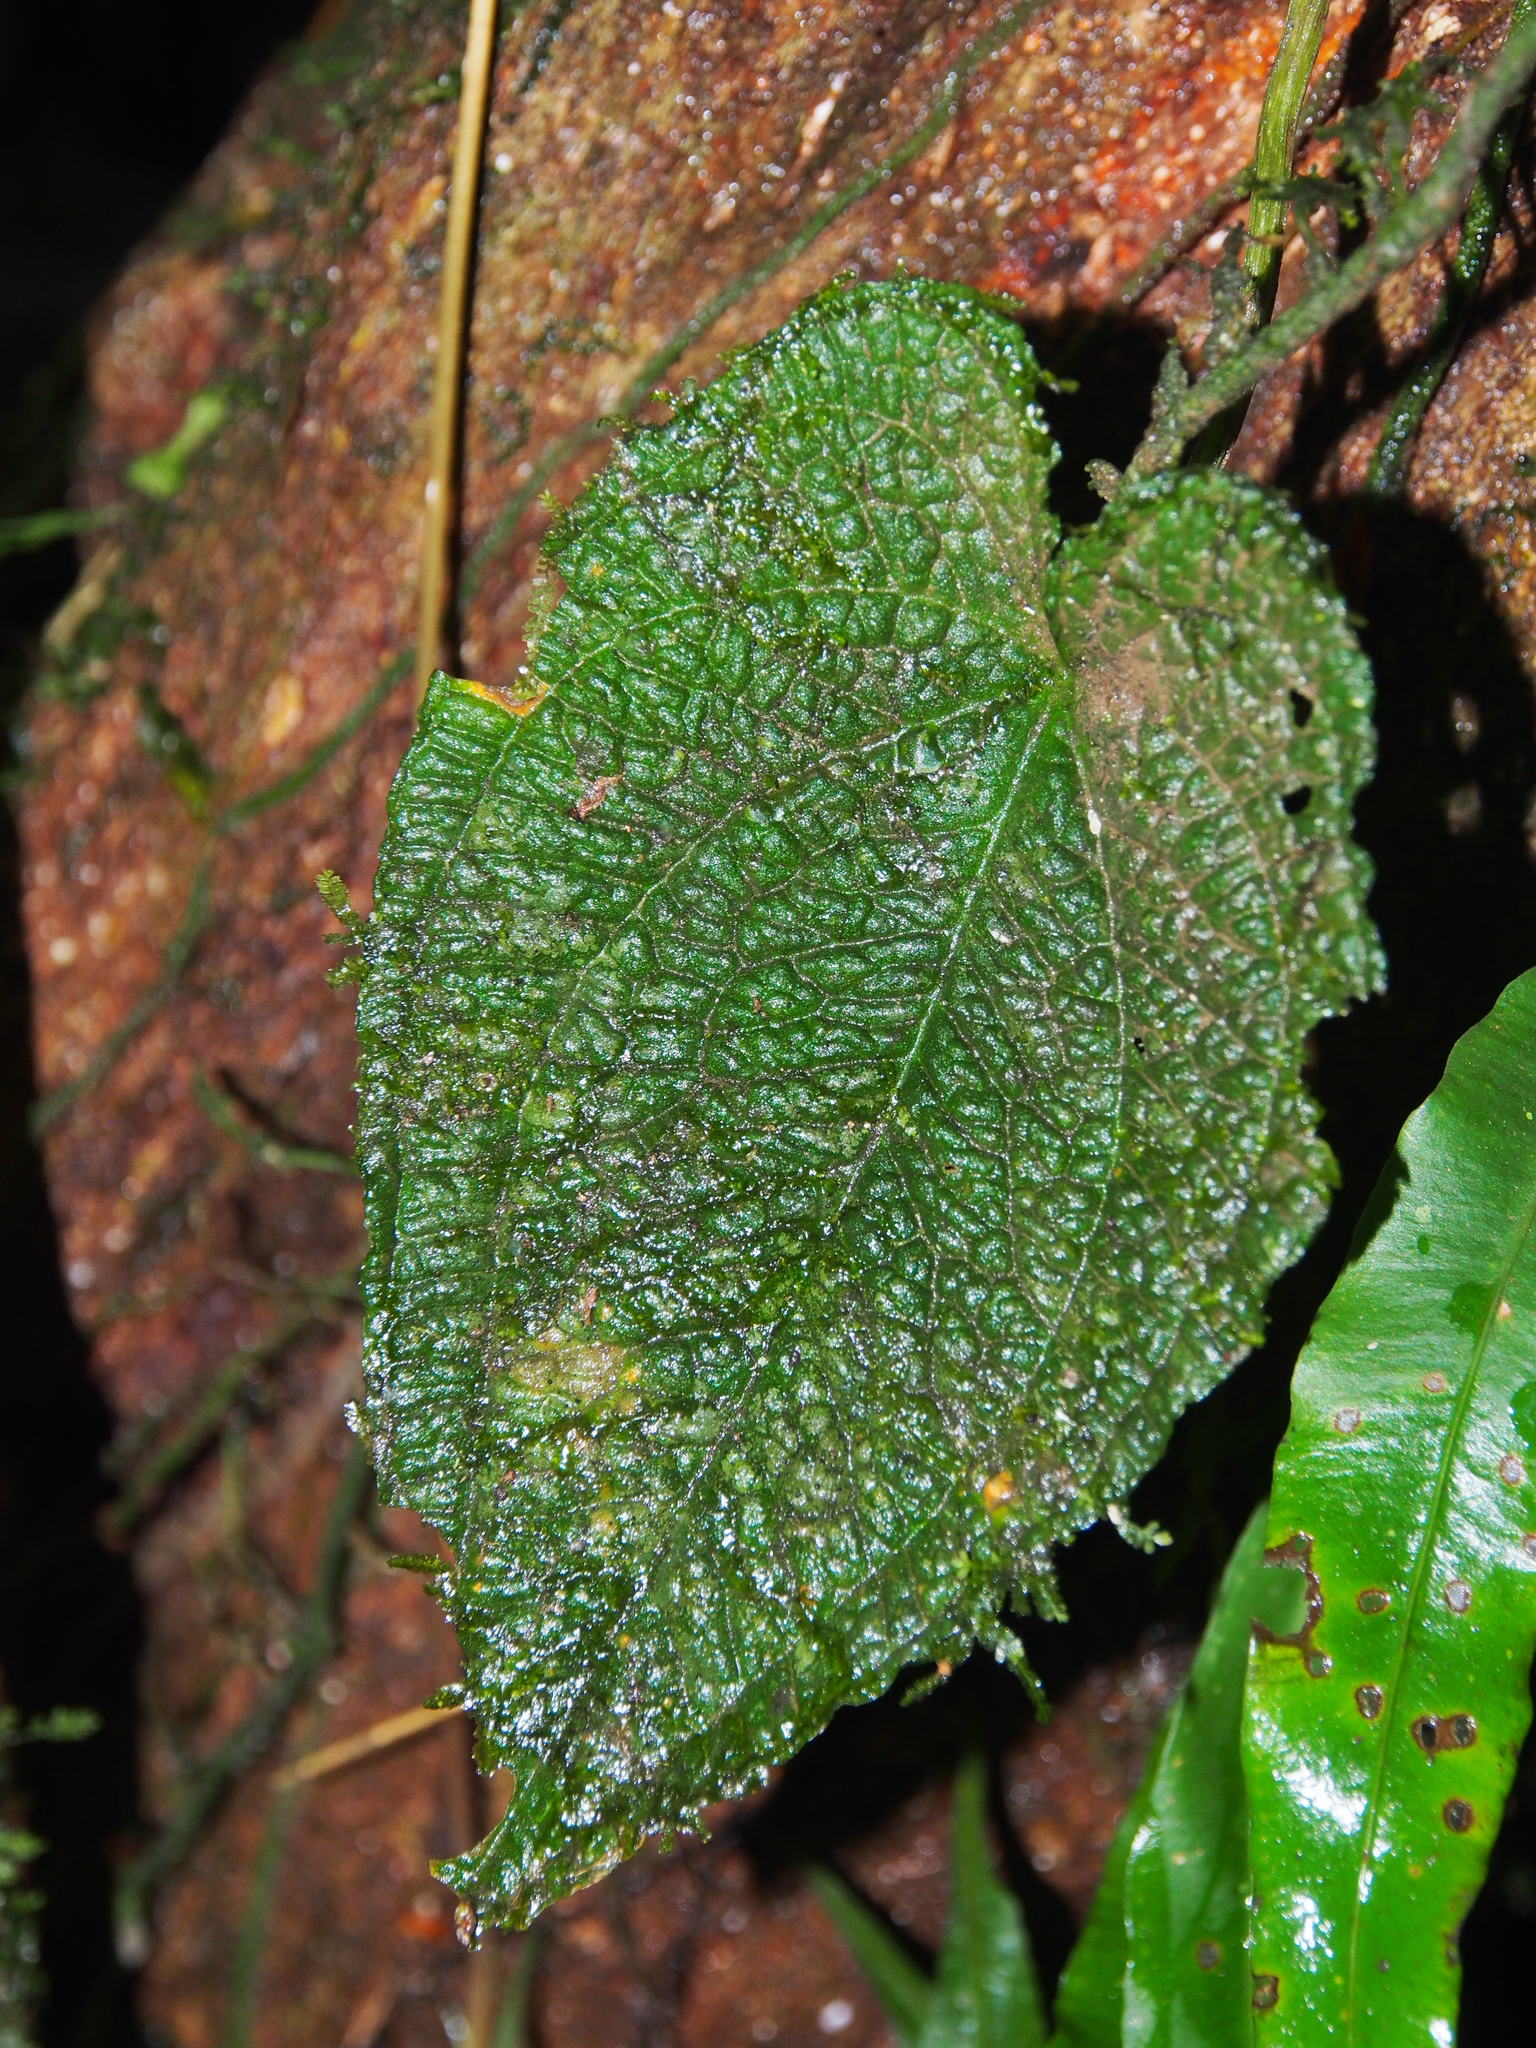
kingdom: Plantae
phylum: Tracheophyta
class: Liliopsida
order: Alismatales
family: Araceae
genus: Anthurium
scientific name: Anthurium clidemioides
